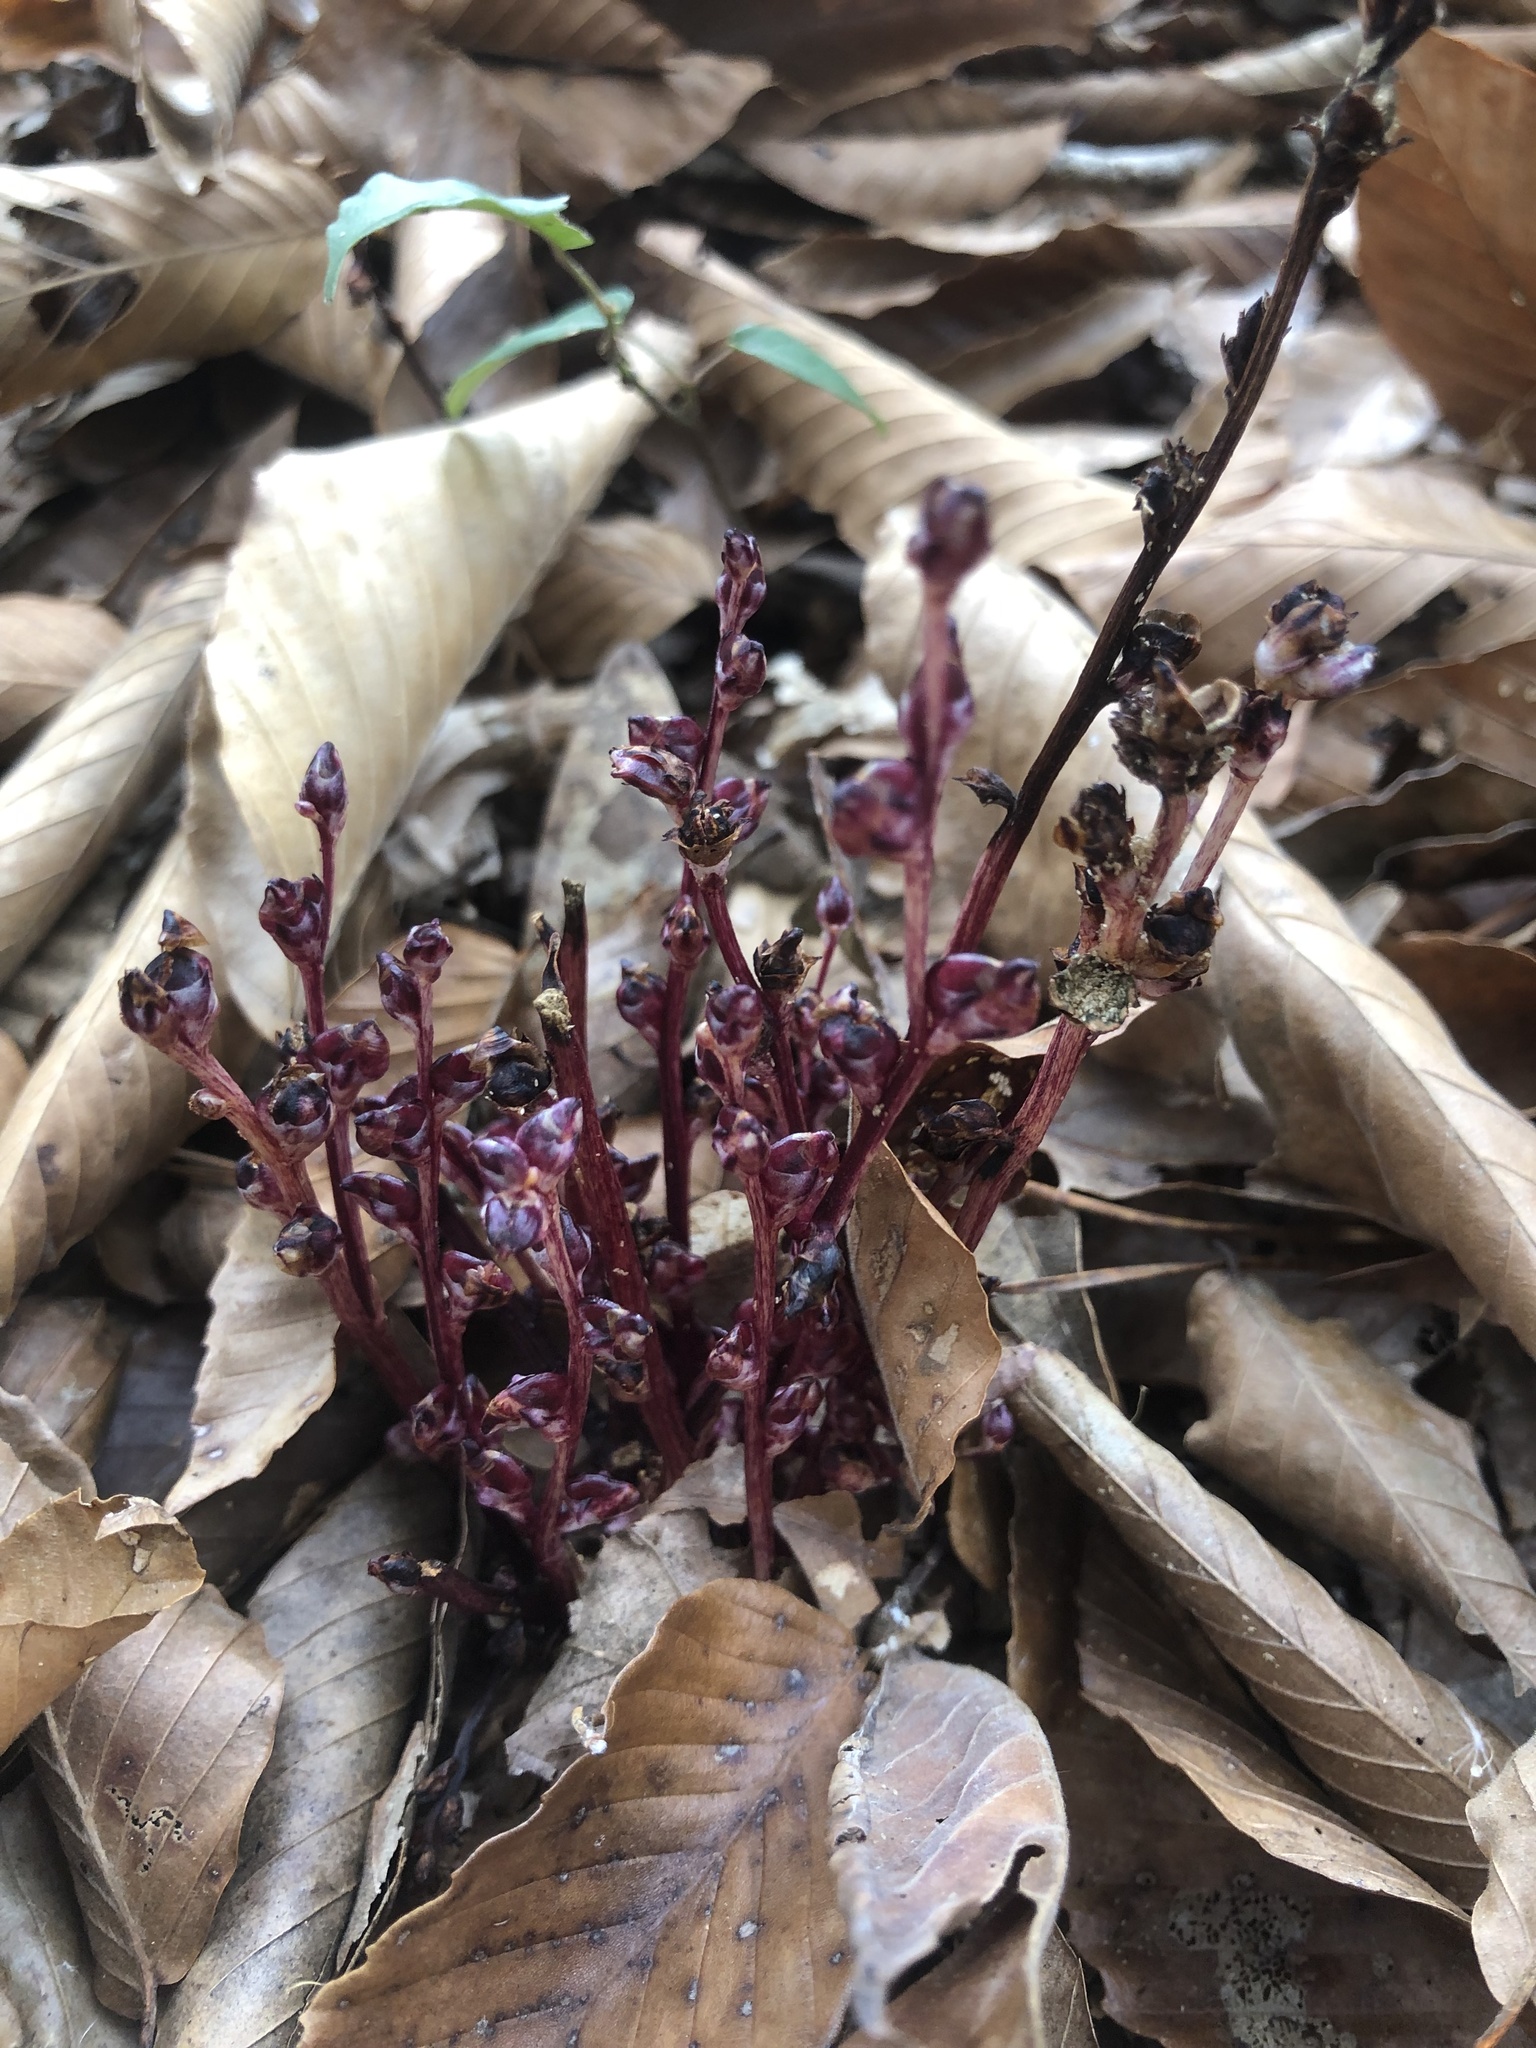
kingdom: Plantae
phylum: Tracheophyta
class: Magnoliopsida
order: Lamiales
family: Orobanchaceae
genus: Epifagus
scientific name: Epifagus virginiana
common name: Beechdrops
